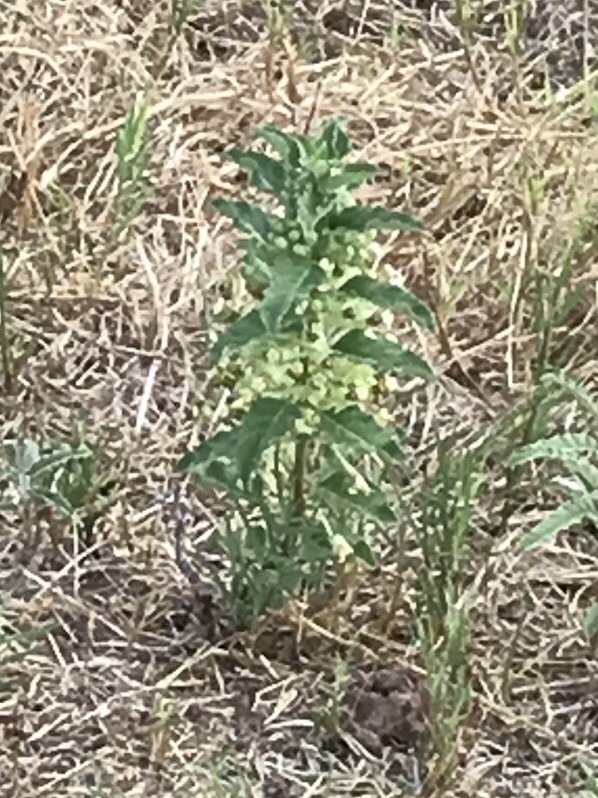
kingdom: Plantae
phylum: Tracheophyta
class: Magnoliopsida
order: Gentianales
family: Apocynaceae
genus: Asclepias
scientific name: Asclepias oenotheroides
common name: Zizotes milkweed
